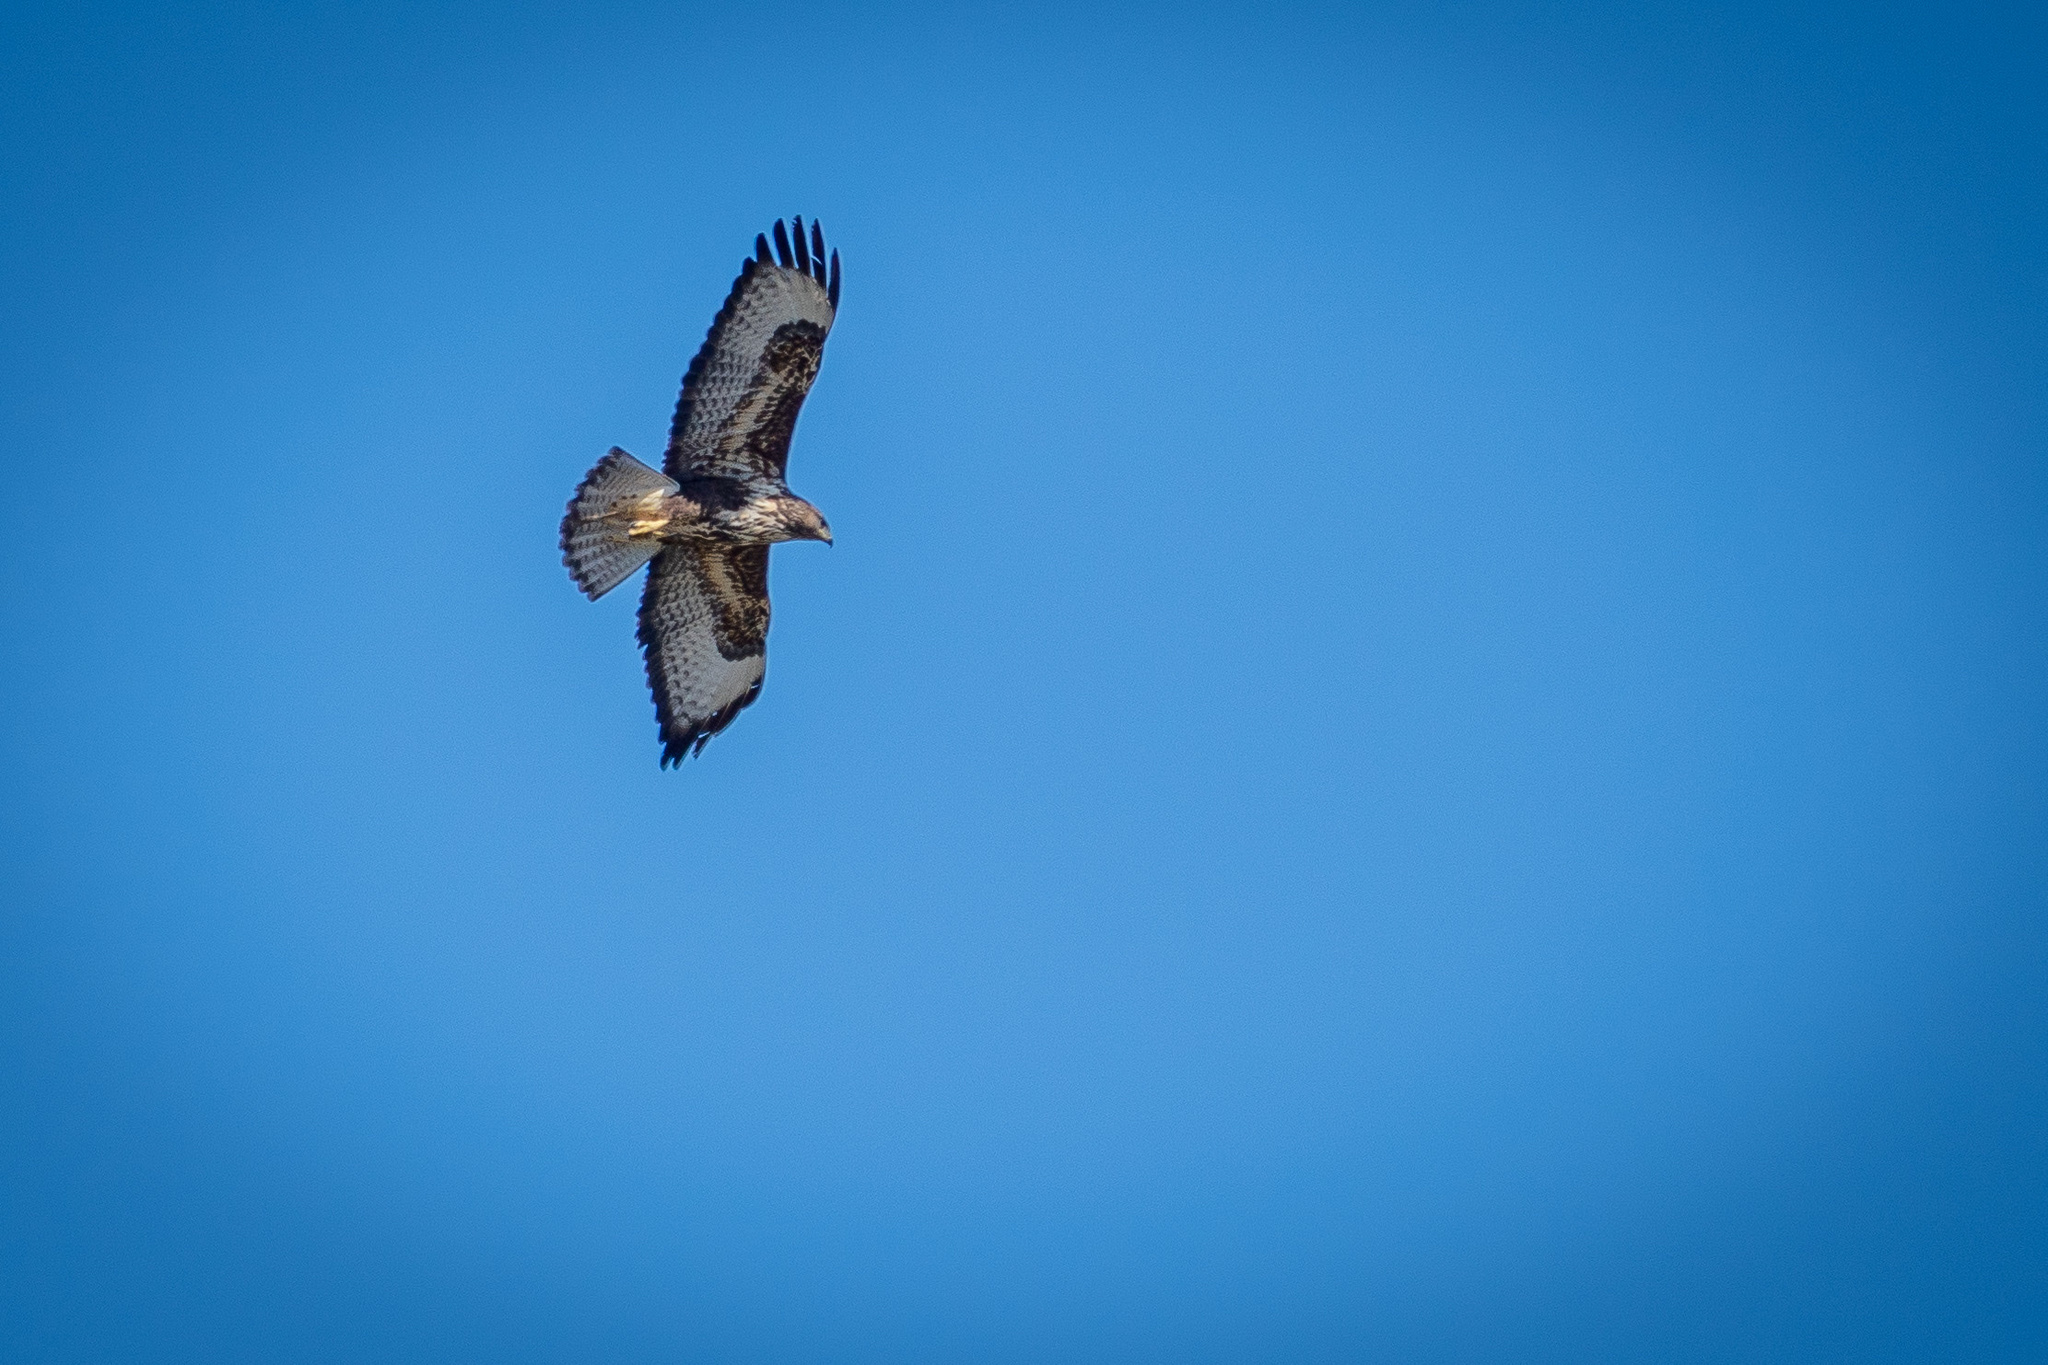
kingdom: Animalia
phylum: Chordata
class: Aves
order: Accipitriformes
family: Accipitridae
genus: Buteo
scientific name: Buteo buteo
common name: Common buzzard
